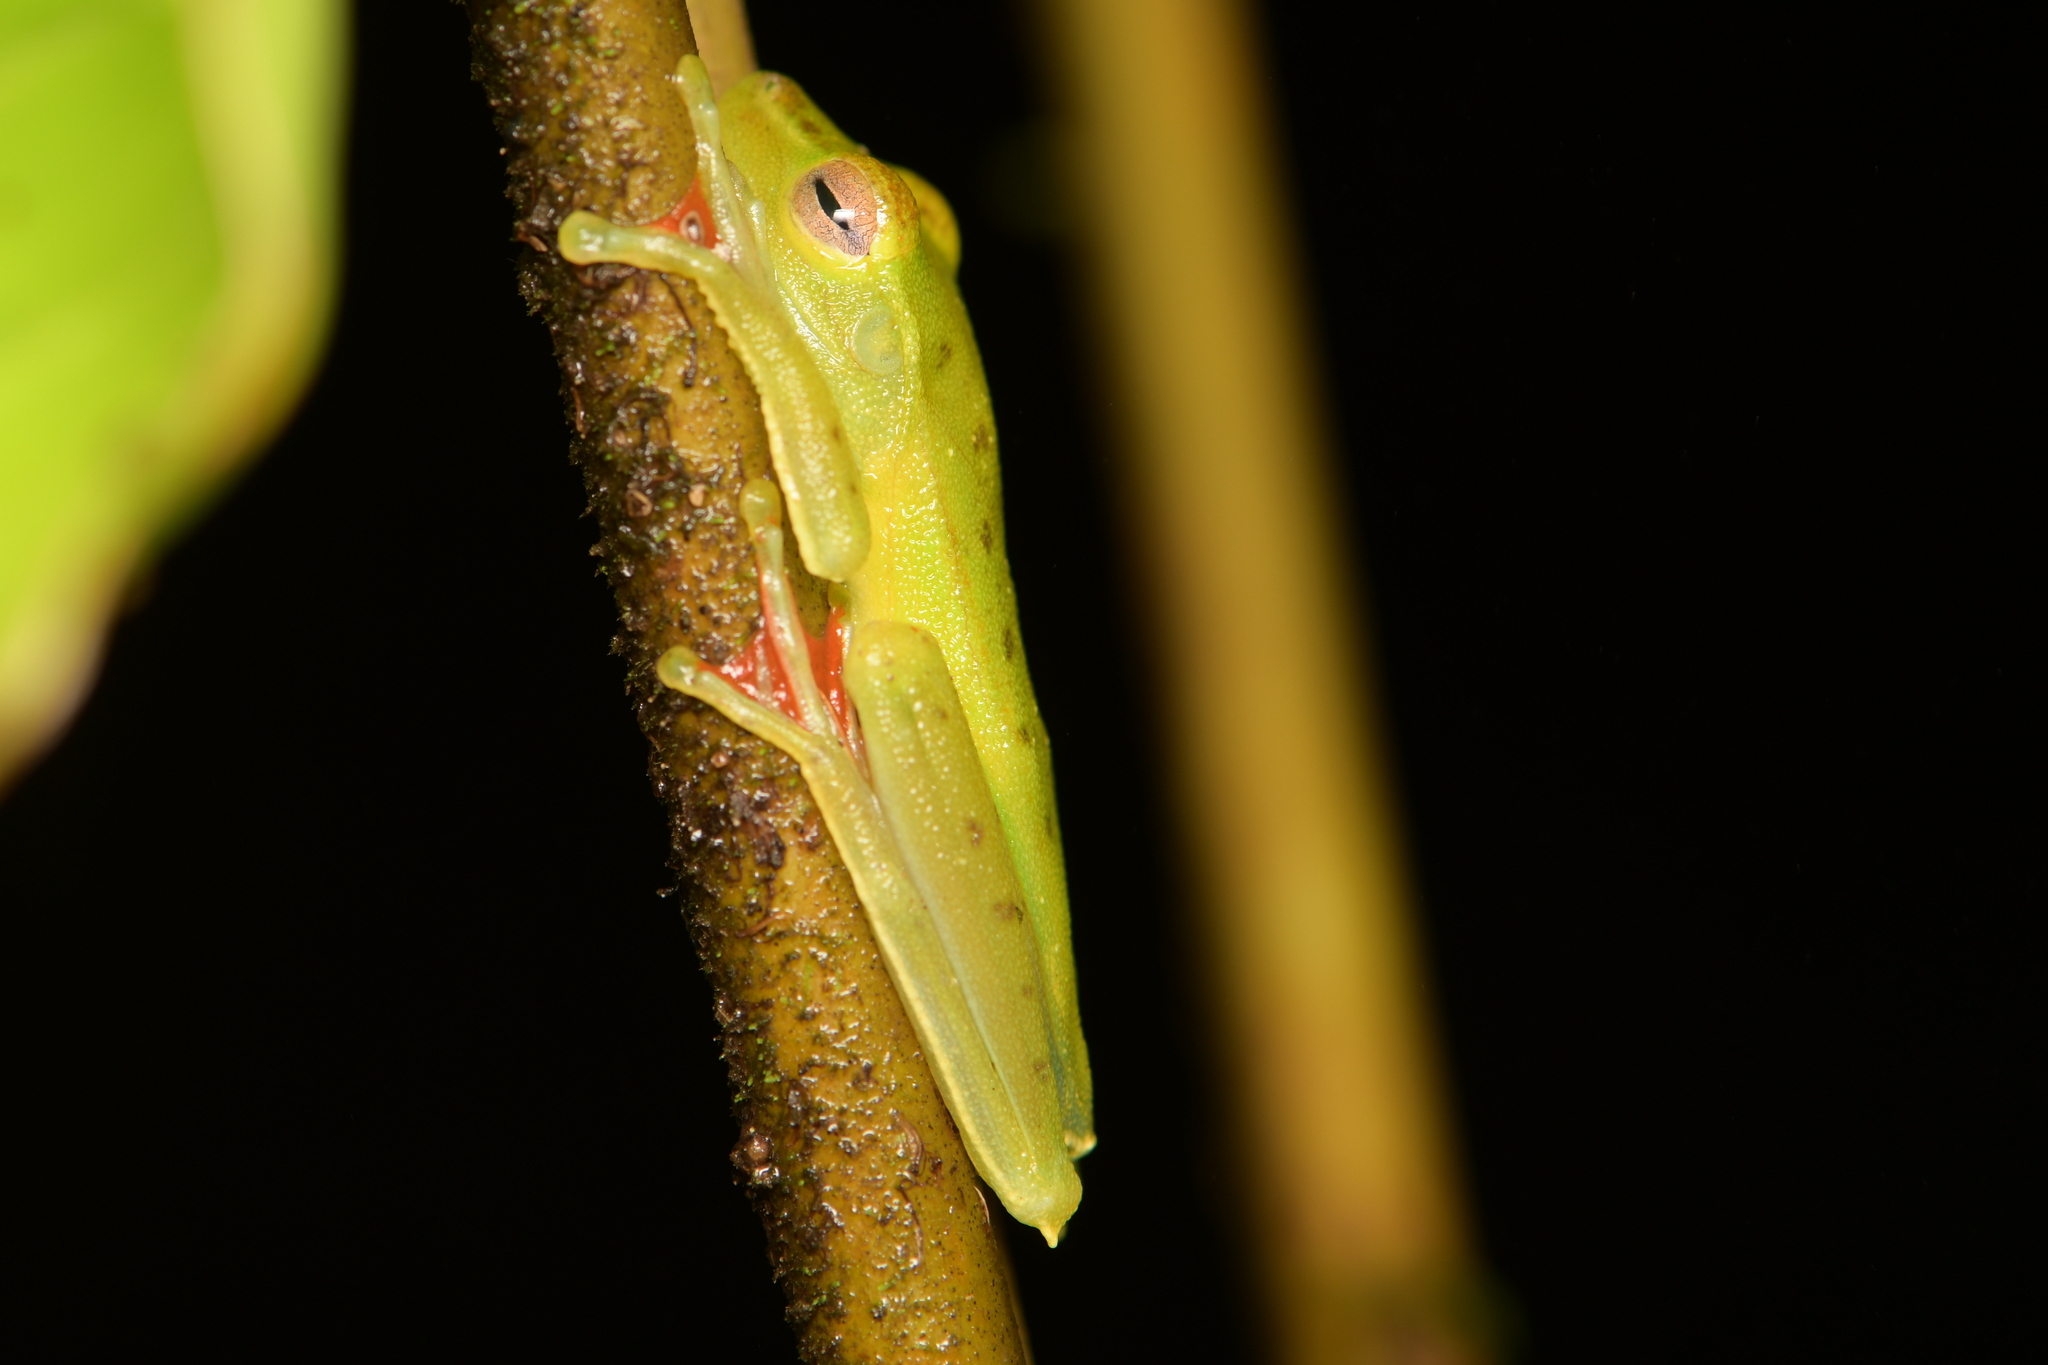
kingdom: Animalia
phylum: Chordata
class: Amphibia
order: Anura
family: Hylidae
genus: Boana
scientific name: Boana rufitela
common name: Canal zone treefrog
